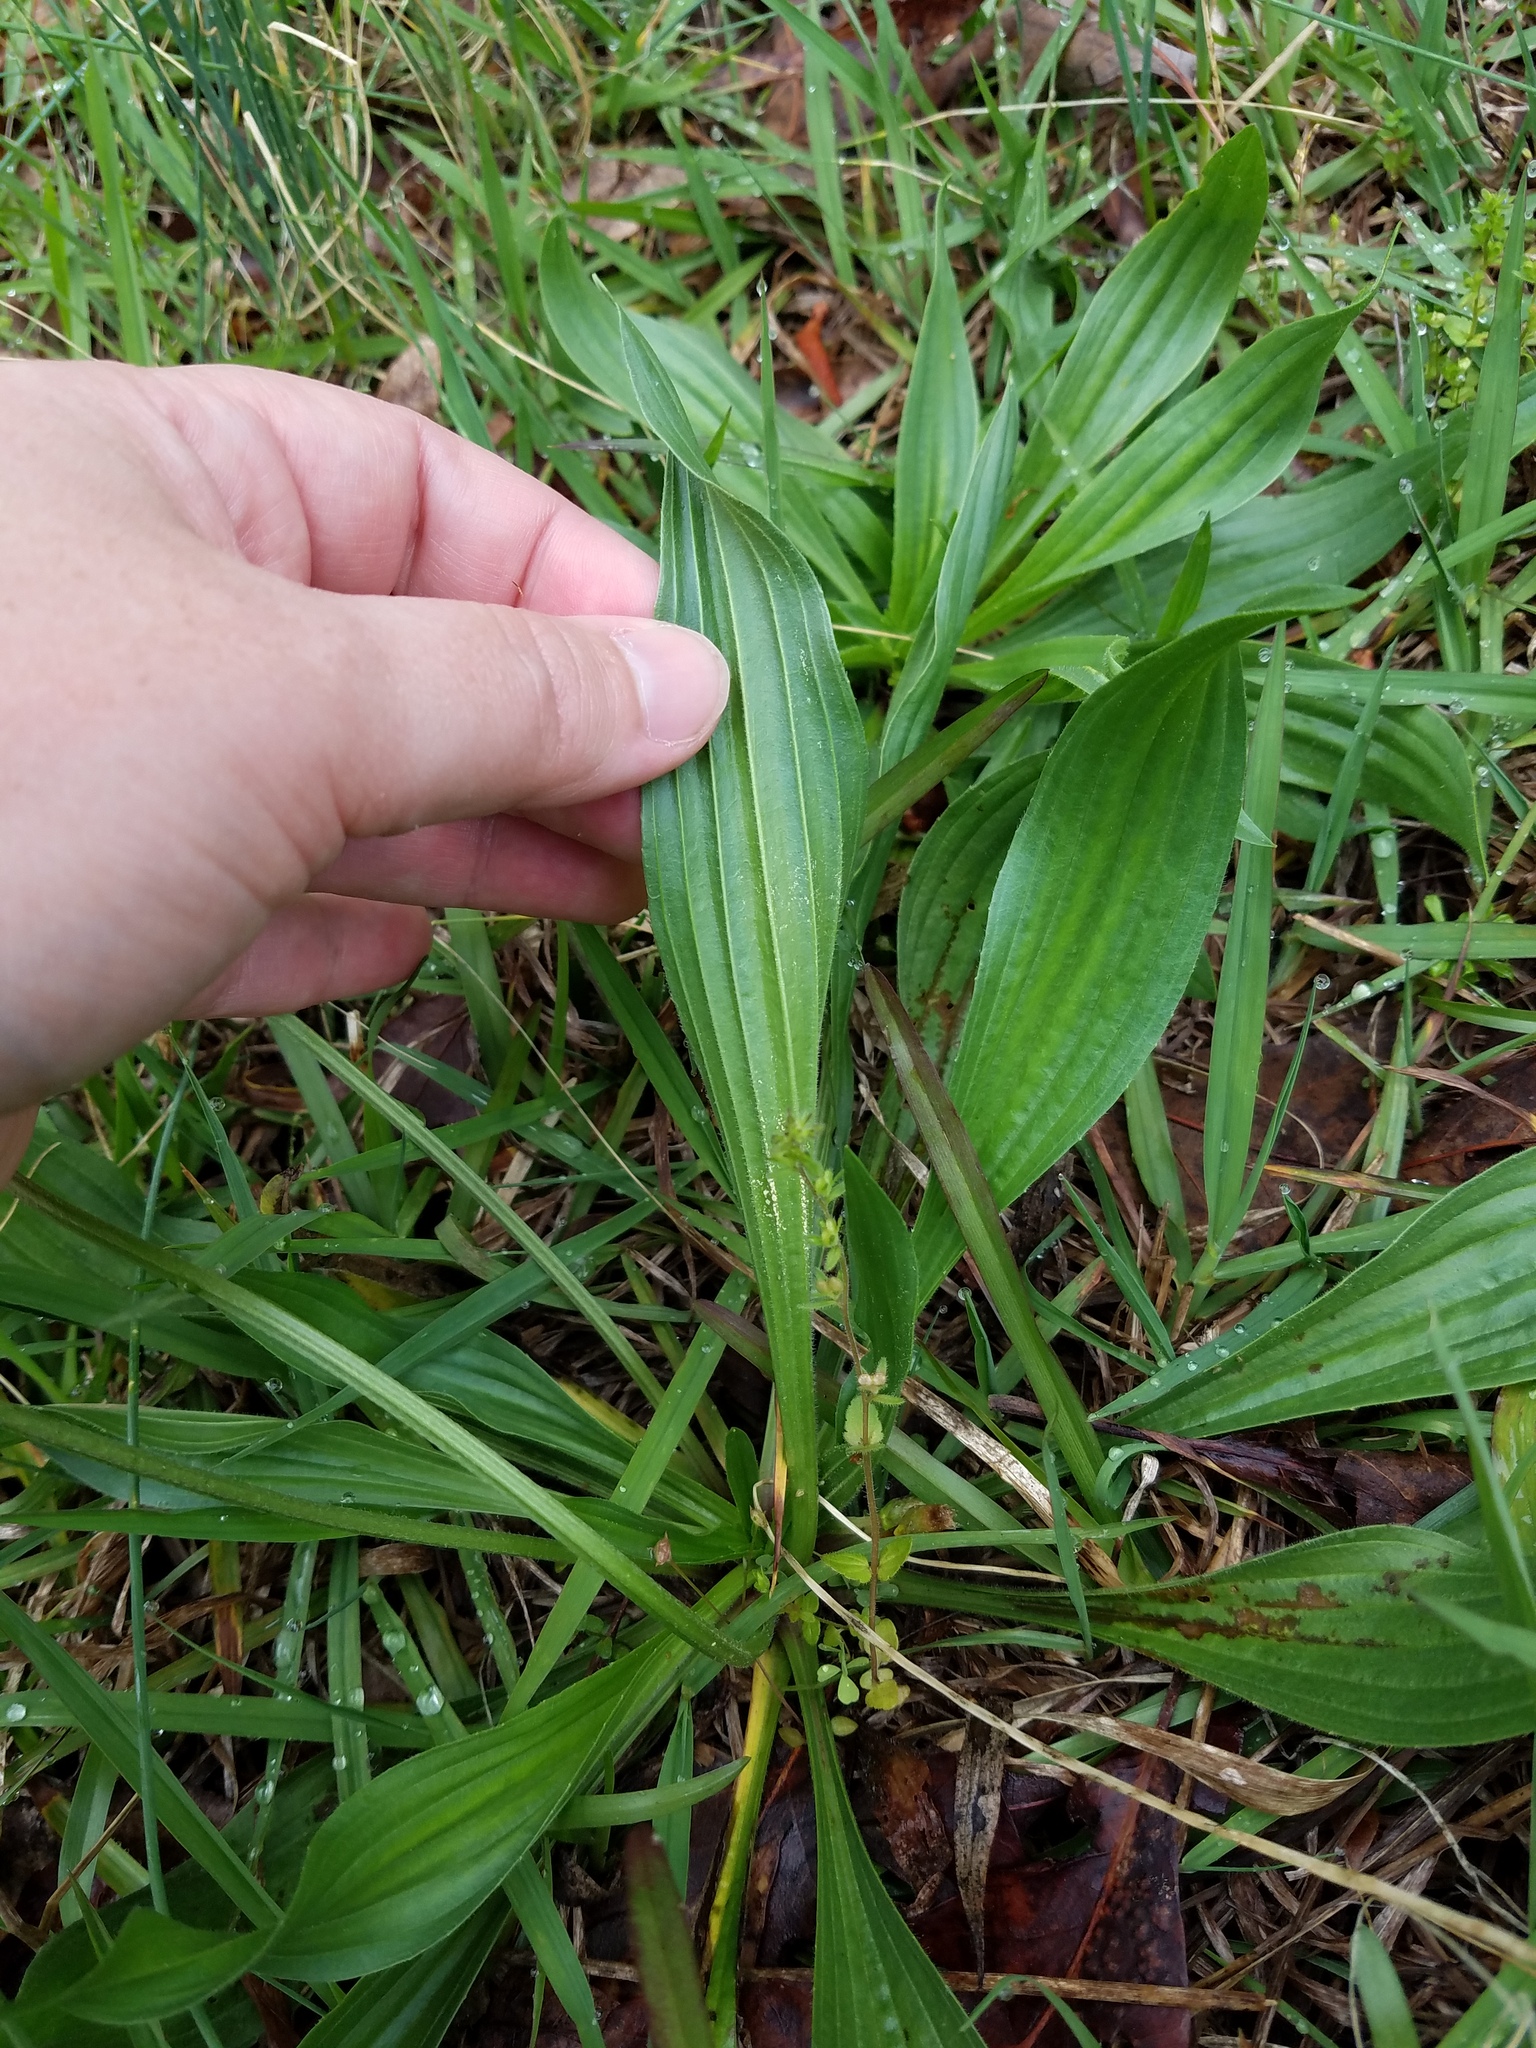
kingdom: Plantae
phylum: Tracheophyta
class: Magnoliopsida
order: Lamiales
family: Plantaginaceae
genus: Plantago
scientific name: Plantago lanceolata
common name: Ribwort plantain
